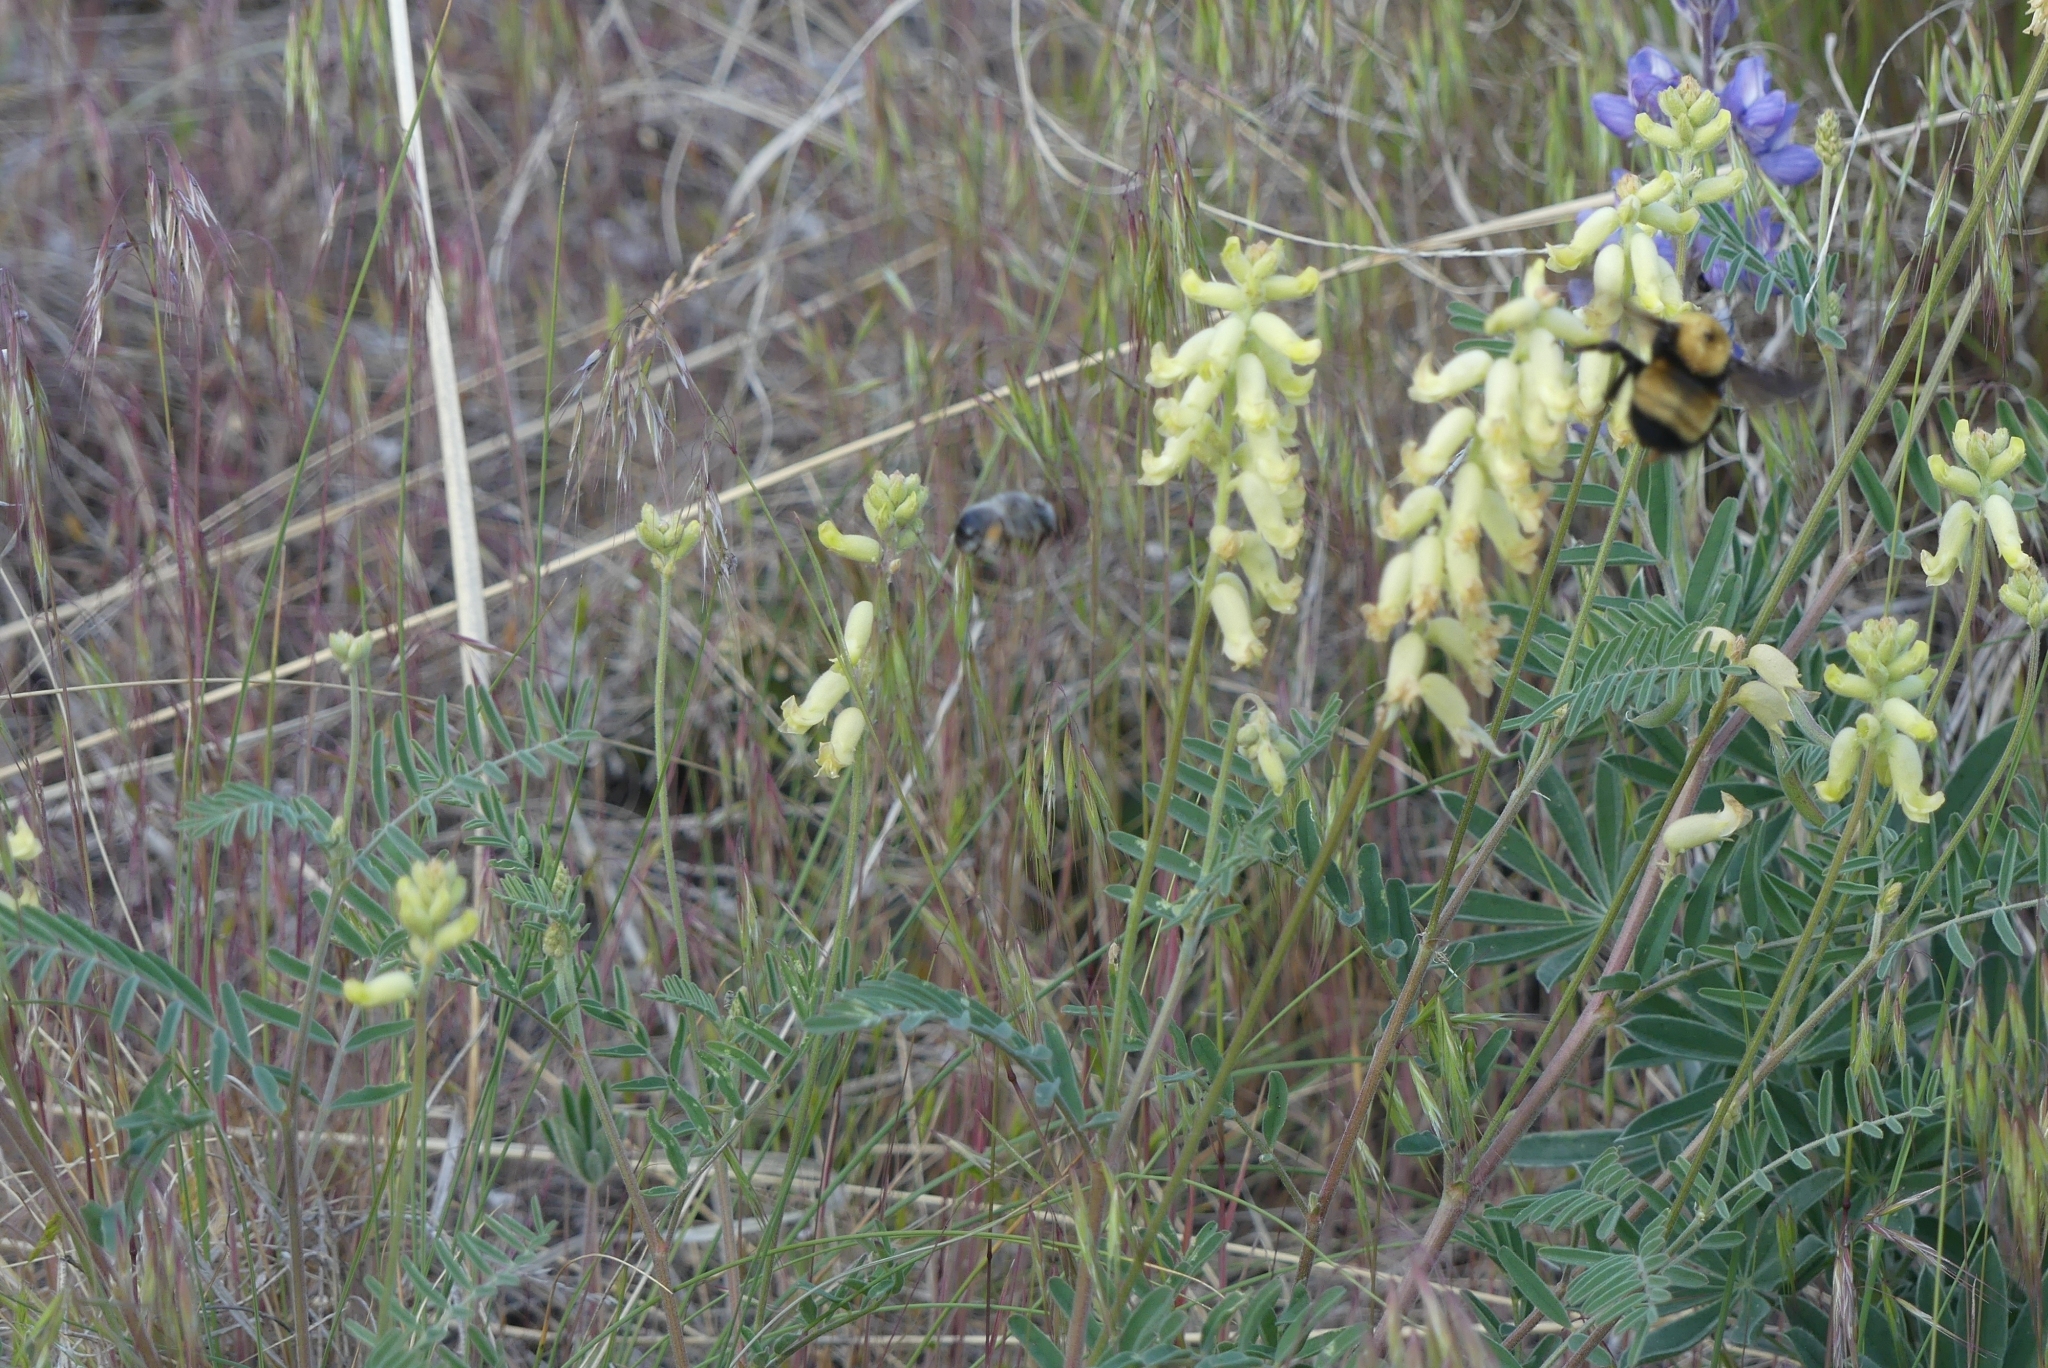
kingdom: Animalia
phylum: Arthropoda
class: Insecta
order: Hymenoptera
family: Apidae
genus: Bombus
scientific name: Bombus nevadensis
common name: Nevada bumble bee
